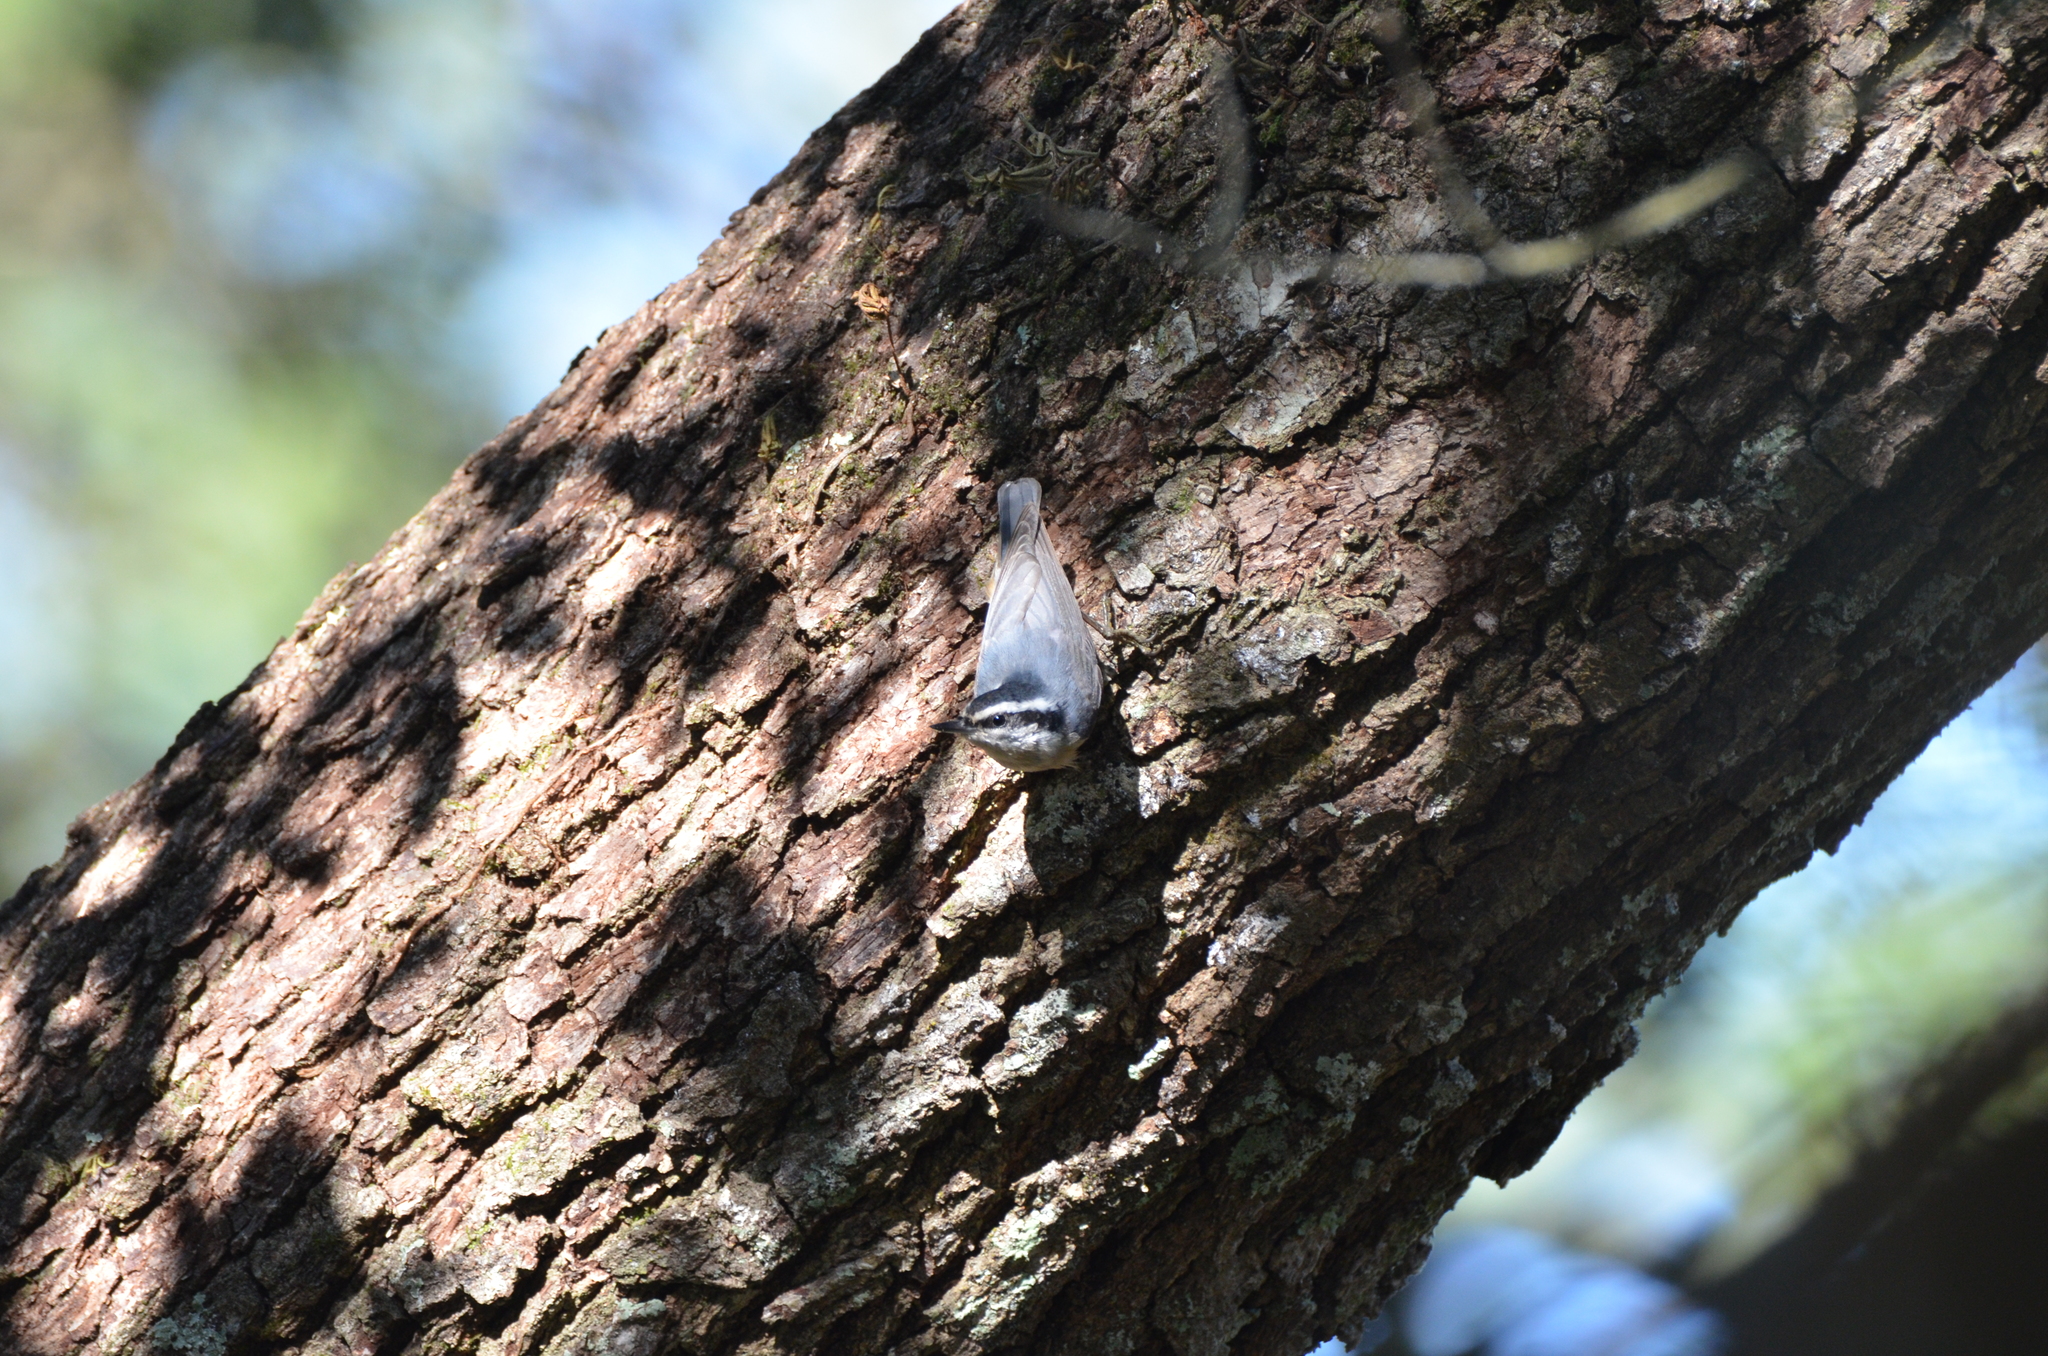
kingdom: Animalia
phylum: Chordata
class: Aves
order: Passeriformes
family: Sittidae
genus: Sitta
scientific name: Sitta canadensis
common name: Red-breasted nuthatch
